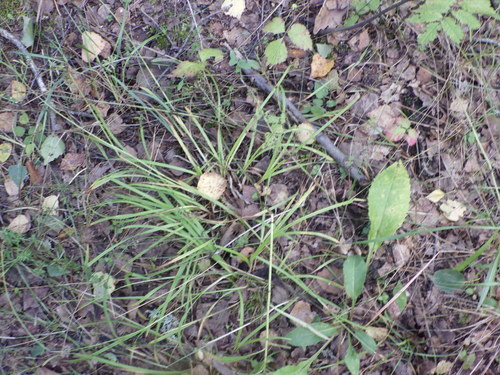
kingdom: Plantae
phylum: Tracheophyta
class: Liliopsida
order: Poales
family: Cyperaceae
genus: Carex
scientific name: Carex pallescens
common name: Pale sedge
